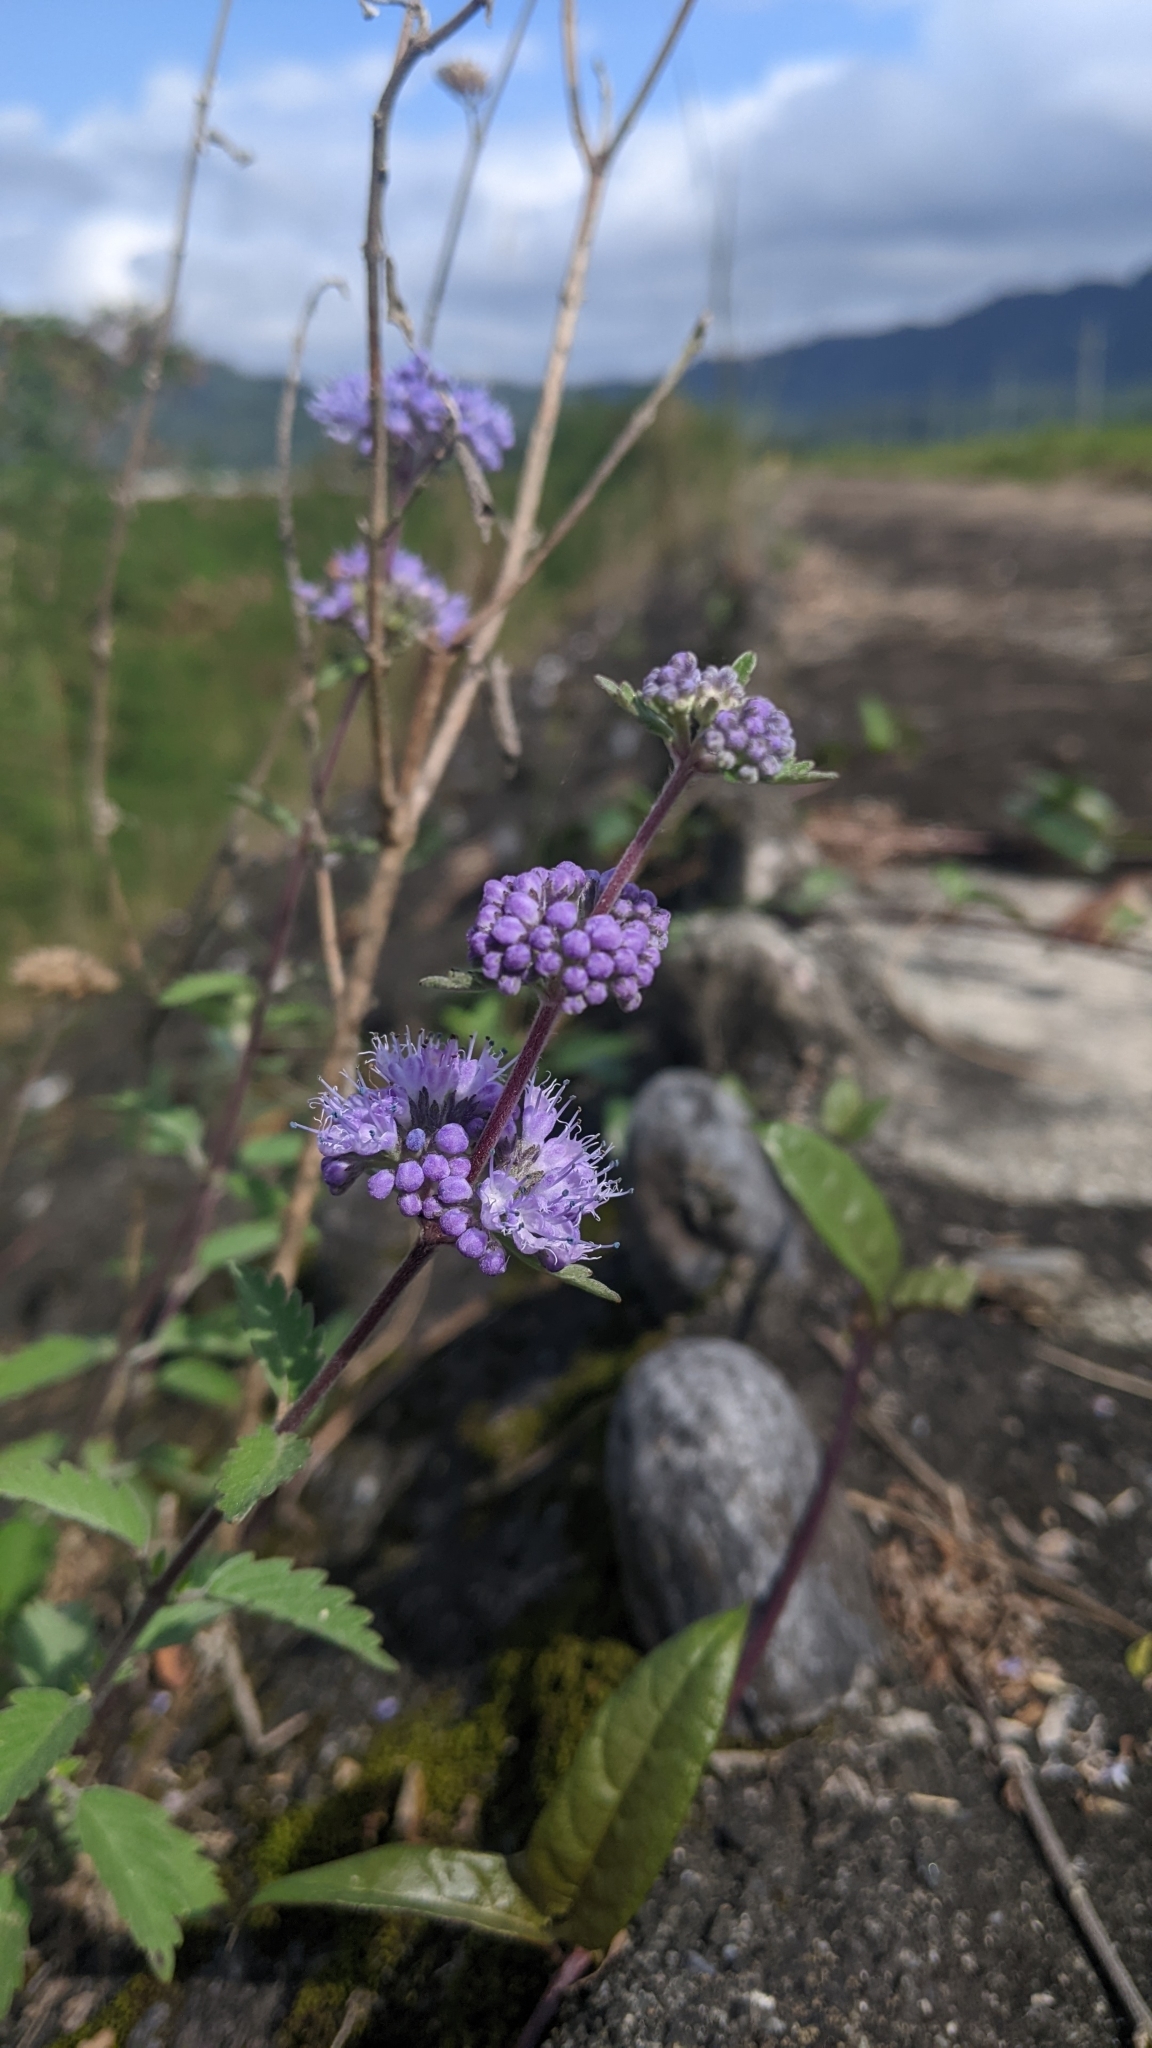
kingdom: Plantae
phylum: Tracheophyta
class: Magnoliopsida
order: Lamiales
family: Lamiaceae
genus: Caryopteris
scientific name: Caryopteris incana
